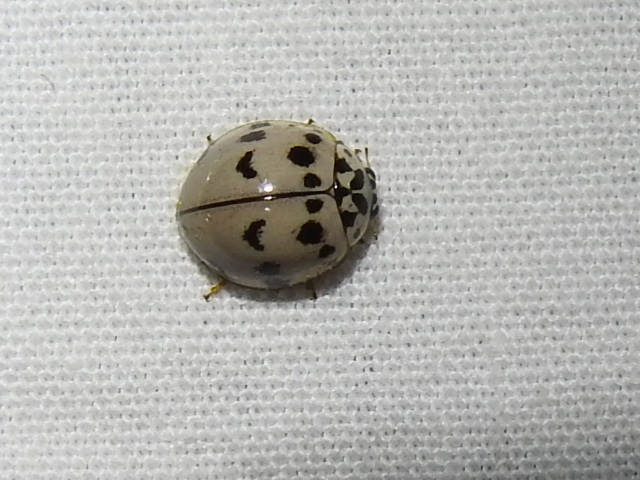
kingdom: Animalia
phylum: Arthropoda
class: Insecta
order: Coleoptera
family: Coccinellidae
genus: Olla
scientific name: Olla v-nigrum
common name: Ashy gray lady beetle
